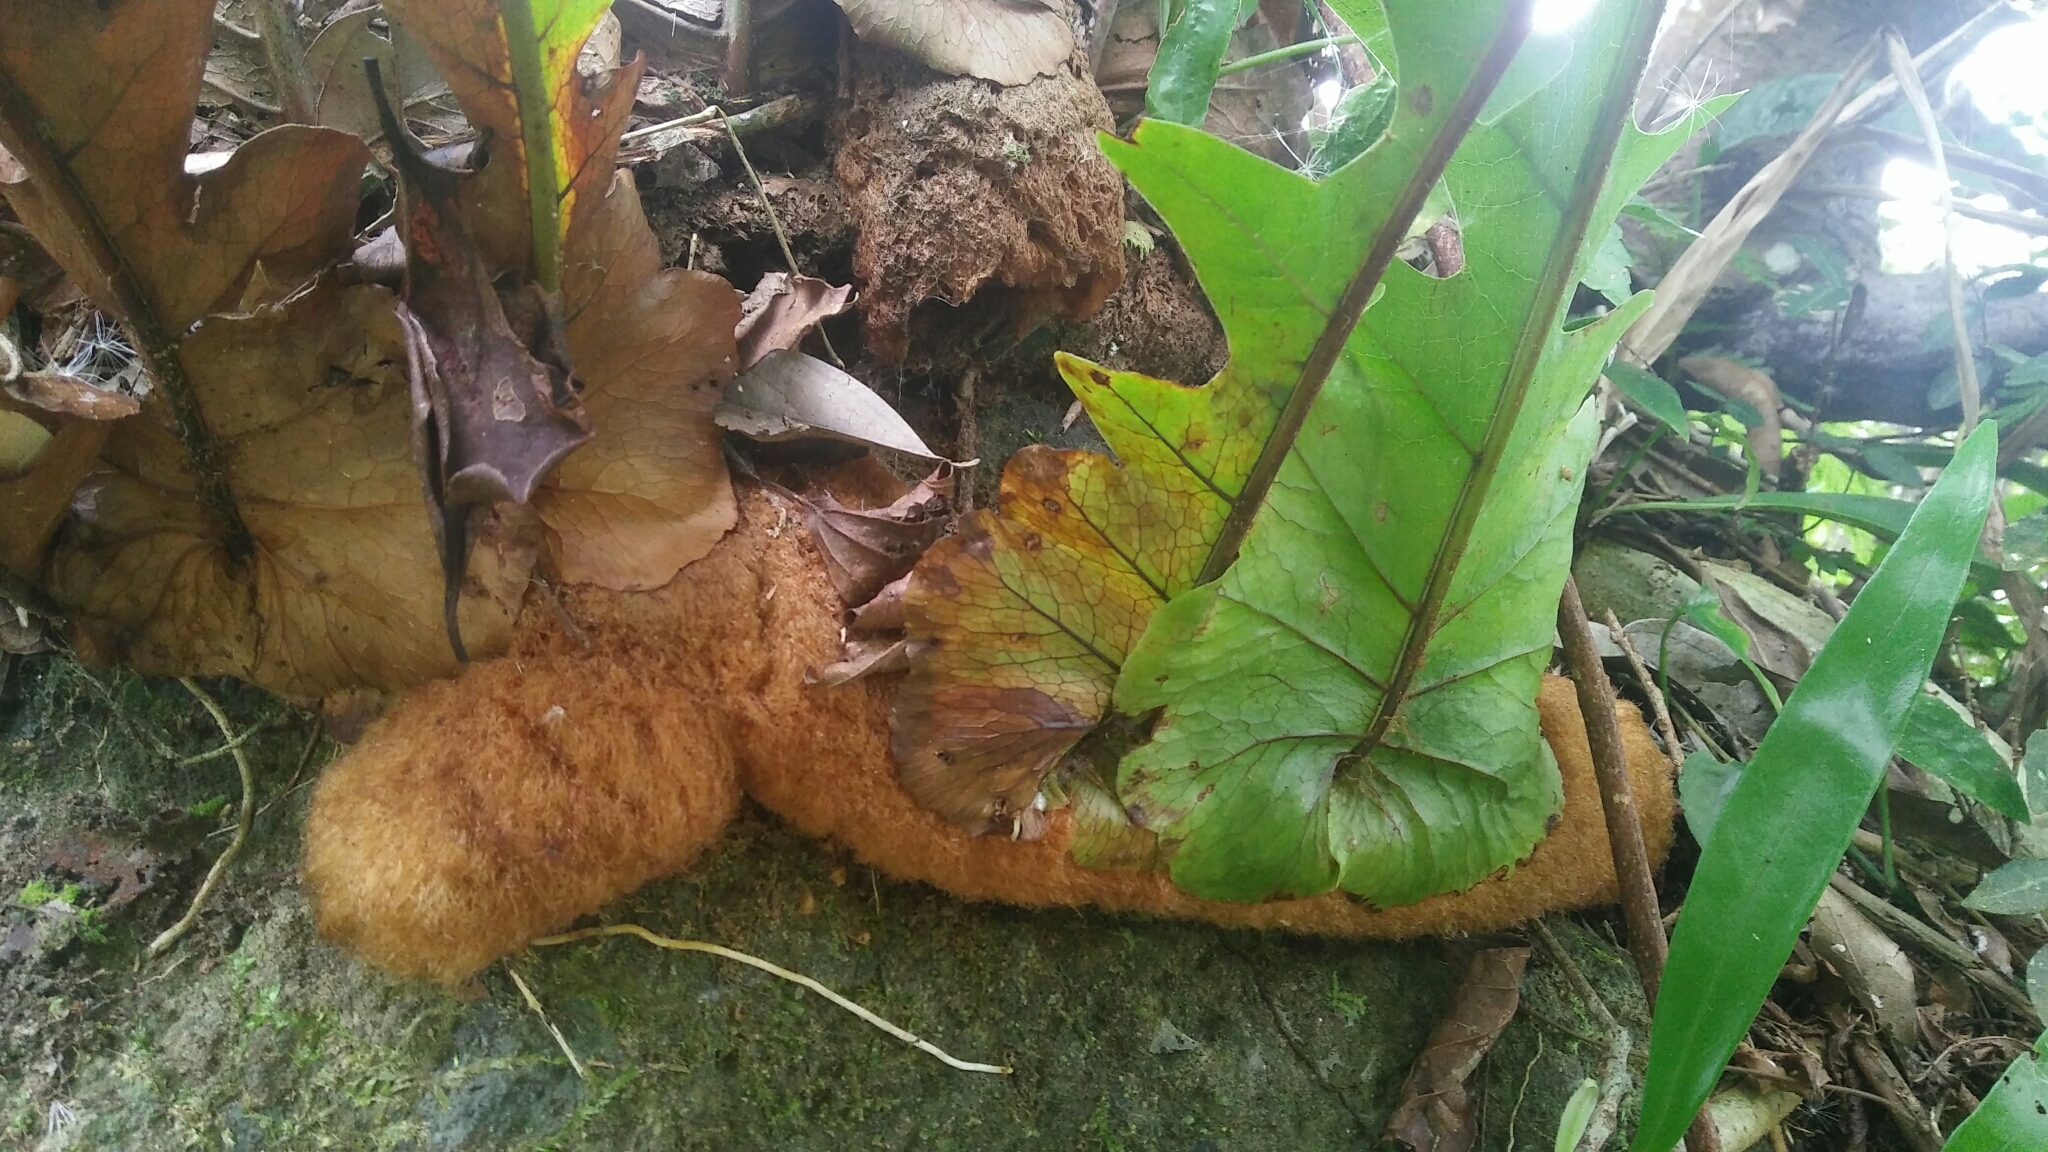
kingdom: Plantae
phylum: Tracheophyta
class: Polypodiopsida
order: Polypodiales
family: Polypodiaceae
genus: Drynaria
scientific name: Drynaria coronans
